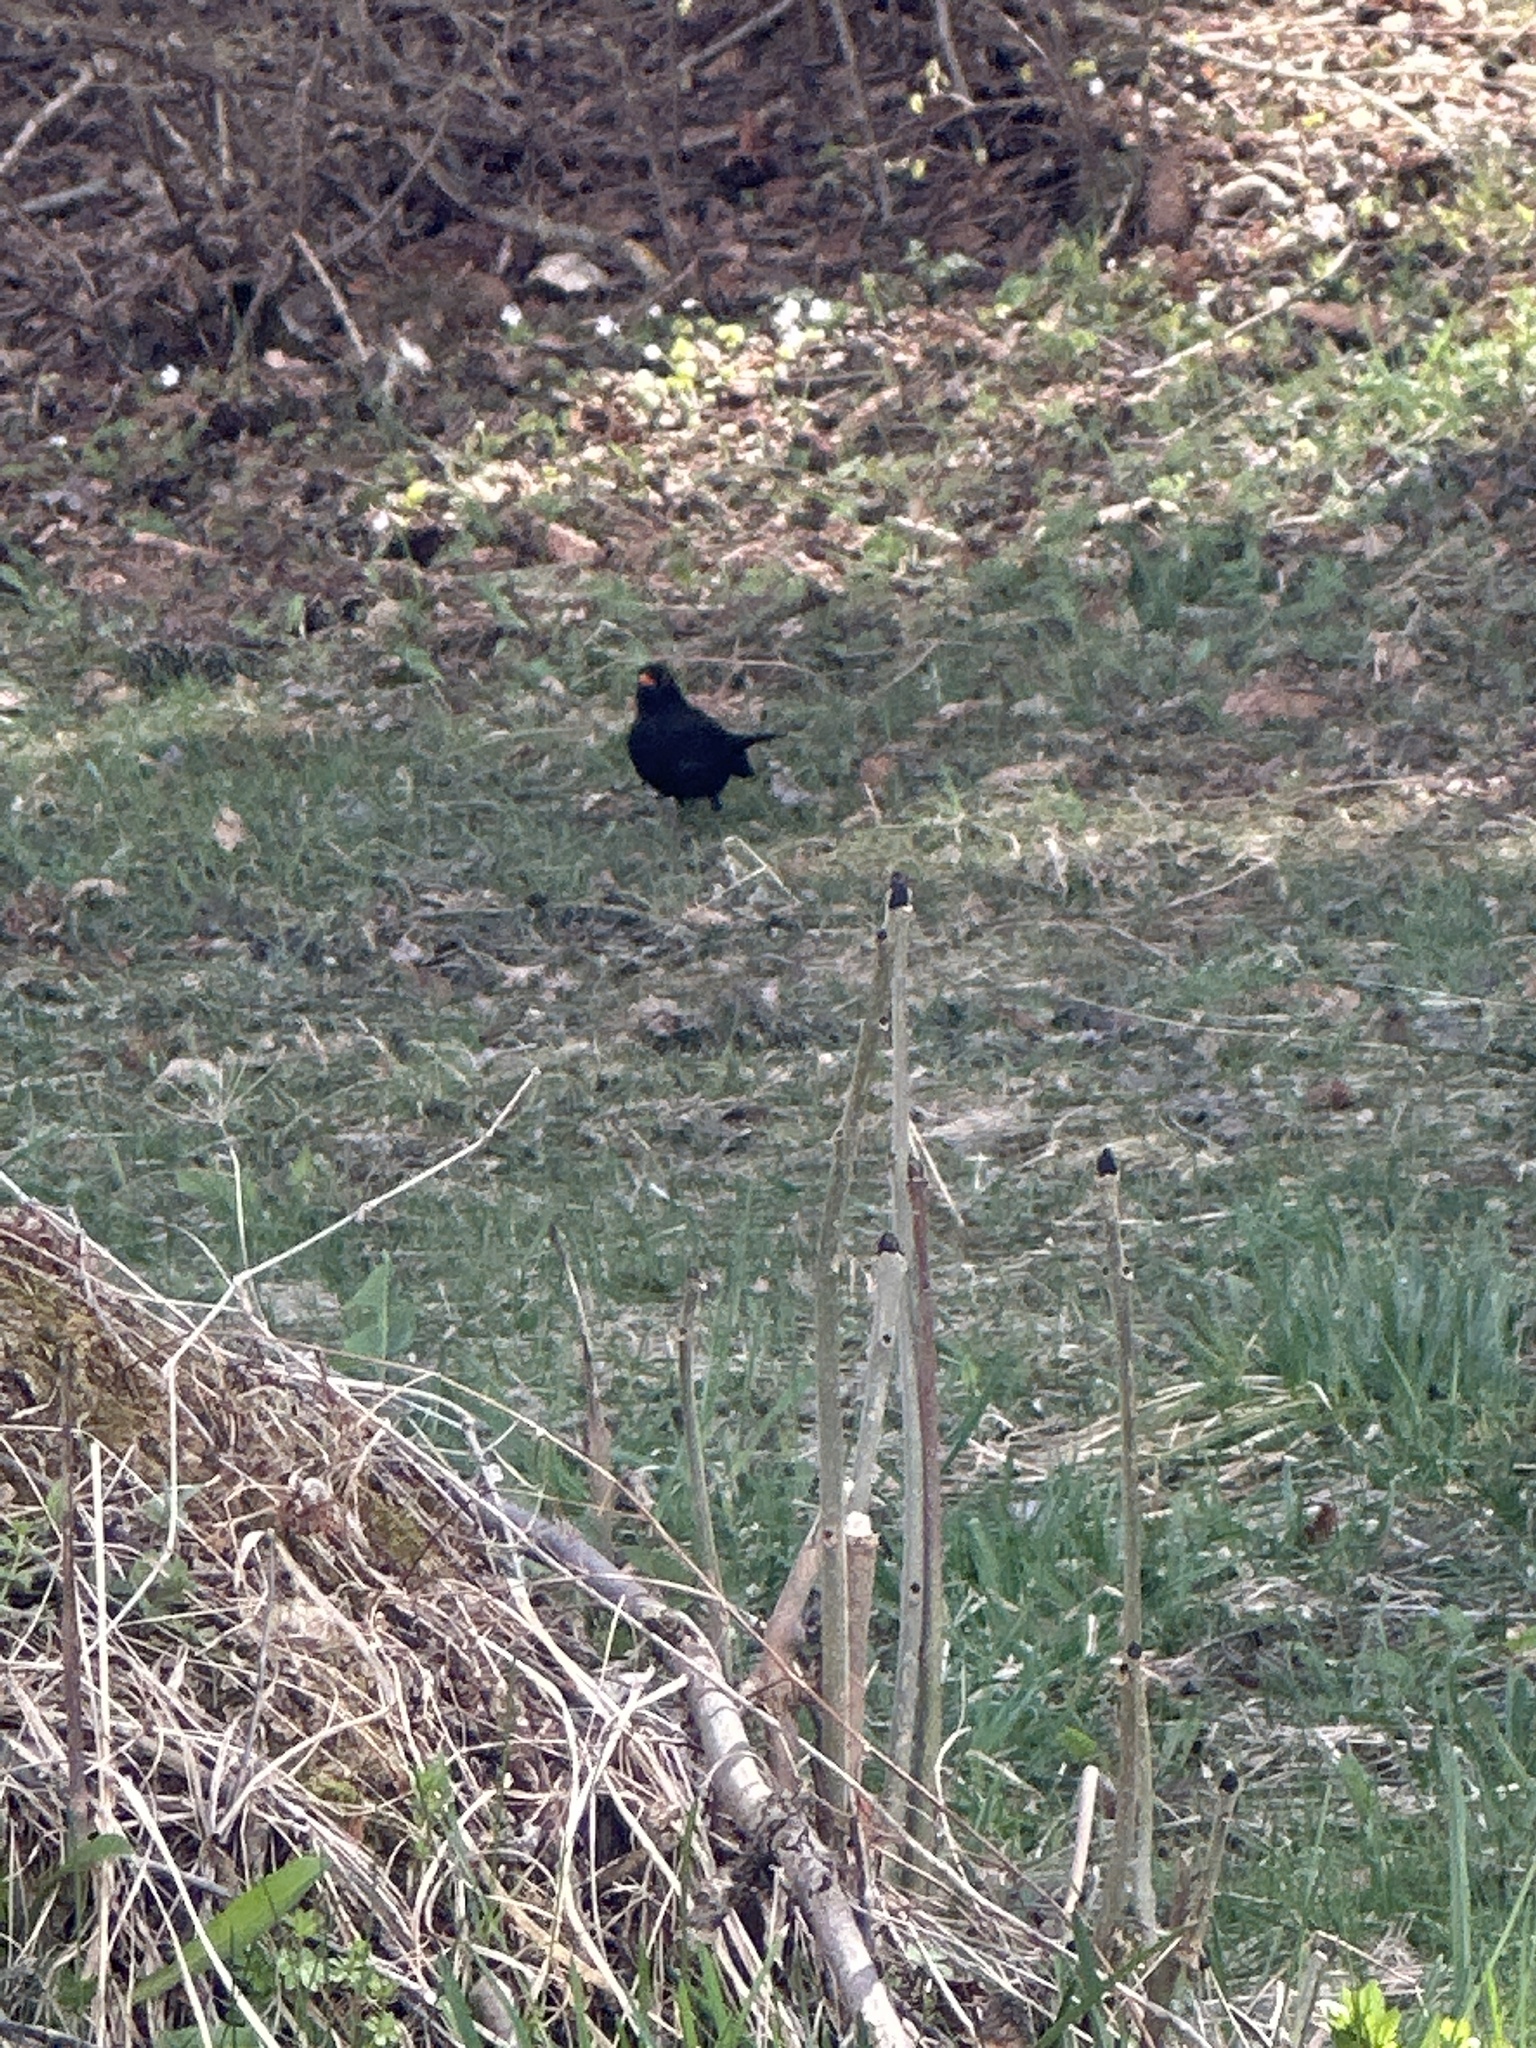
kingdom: Animalia
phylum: Chordata
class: Aves
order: Passeriformes
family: Turdidae
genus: Turdus
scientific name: Turdus merula
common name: Common blackbird
